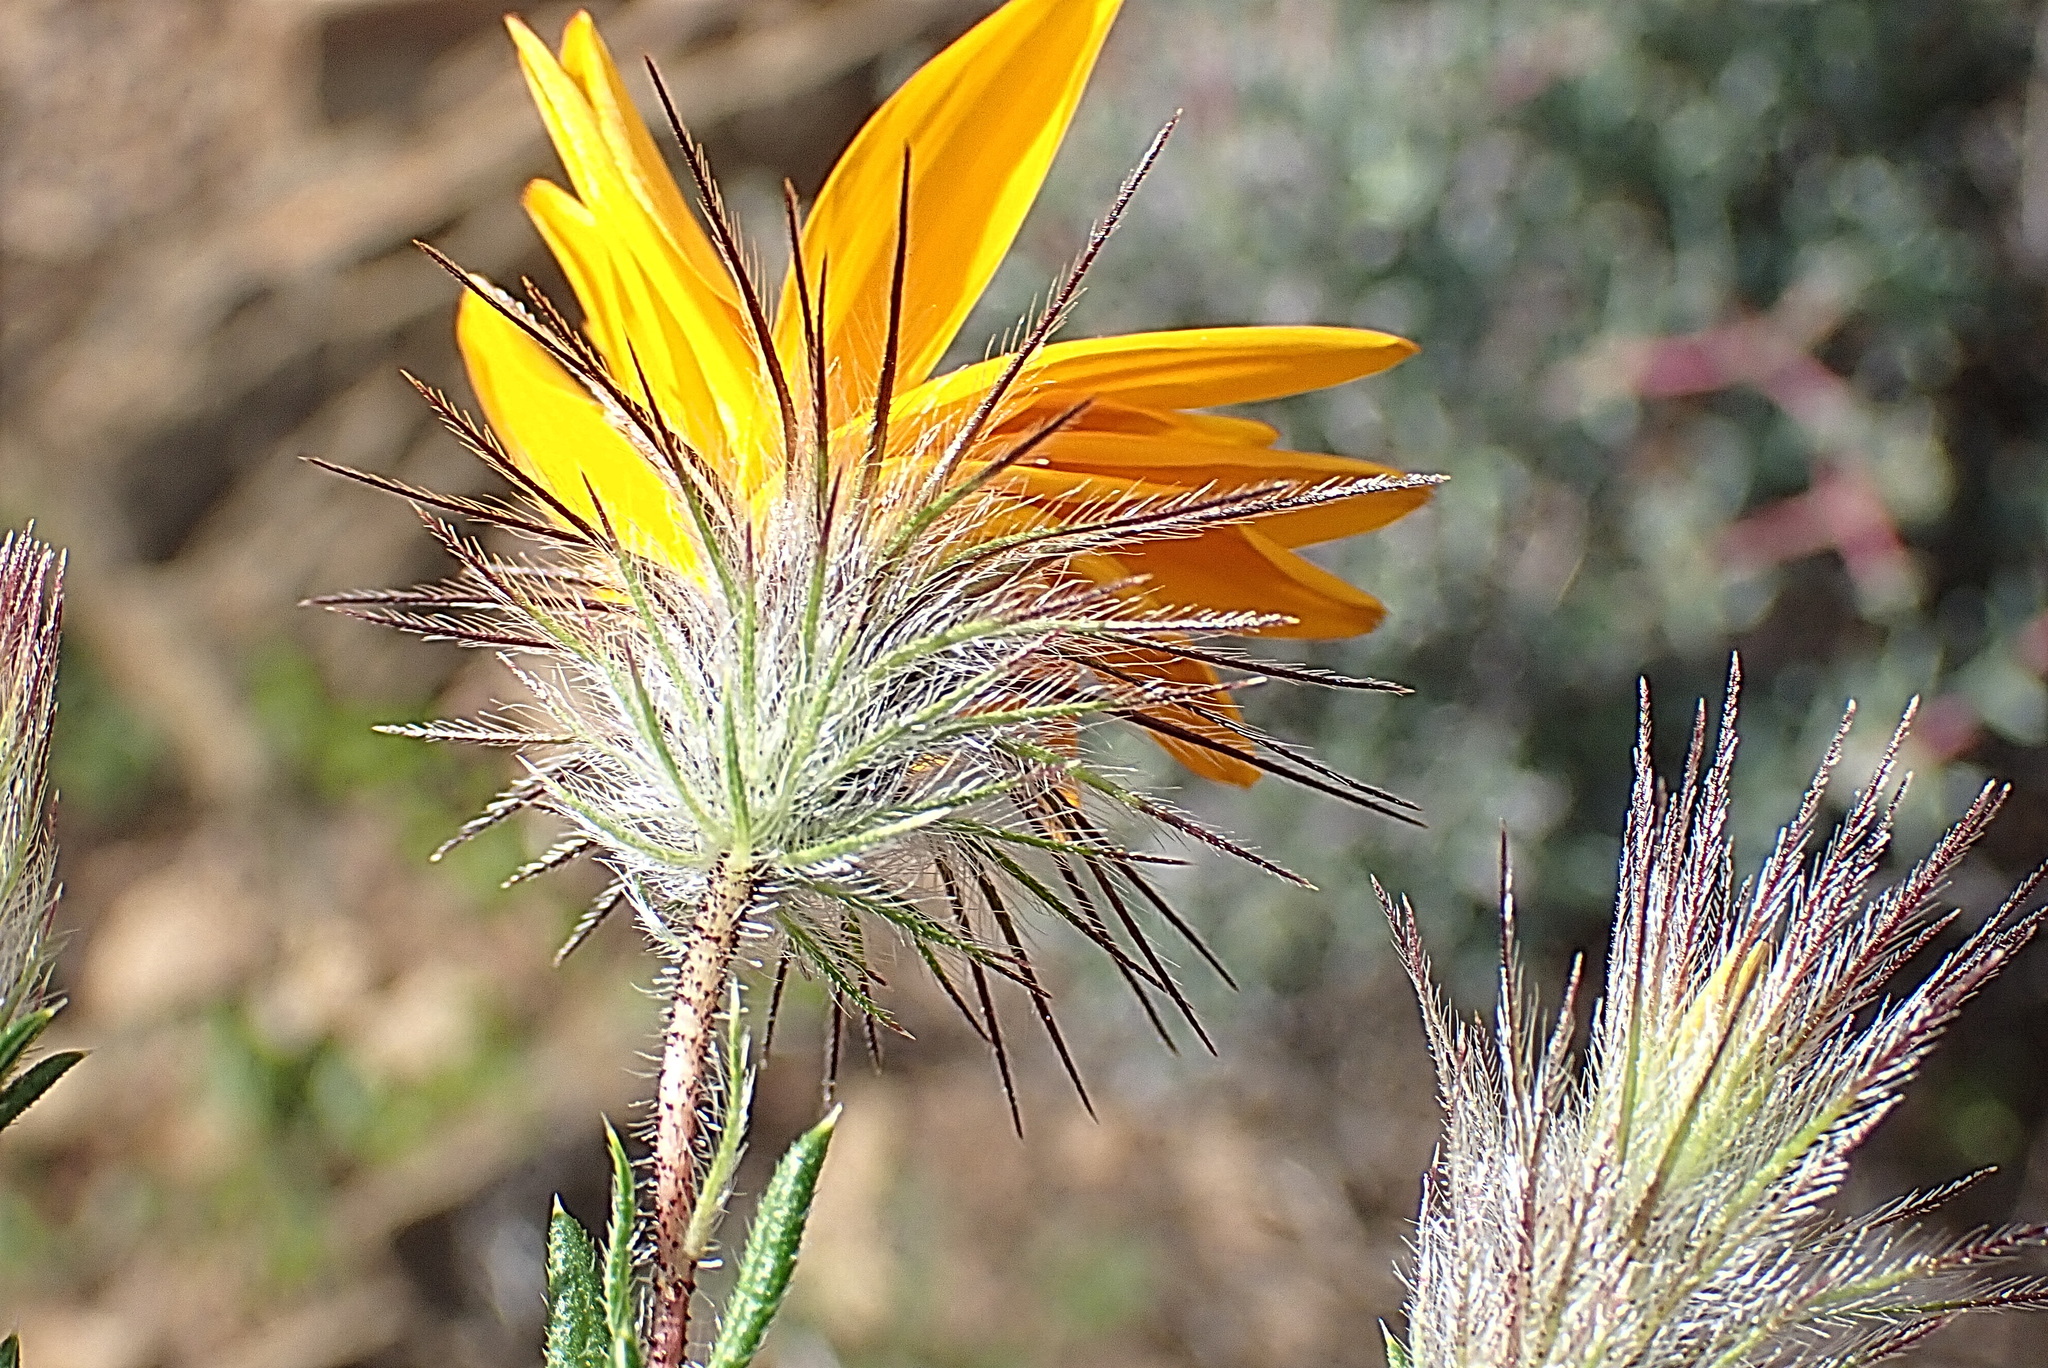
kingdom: Plantae
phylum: Tracheophyta
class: Magnoliopsida
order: Asterales
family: Asteraceae
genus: Hirpicium
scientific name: Hirpicium integrifolium
